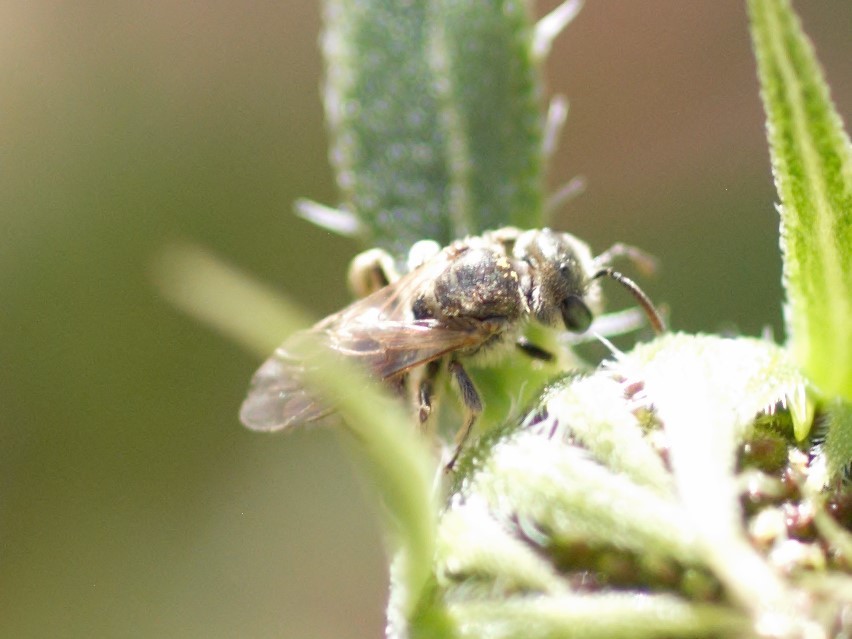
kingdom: Animalia
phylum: Arthropoda
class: Insecta
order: Hymenoptera
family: Halictidae
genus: Halictus
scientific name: Halictus tripartitus
